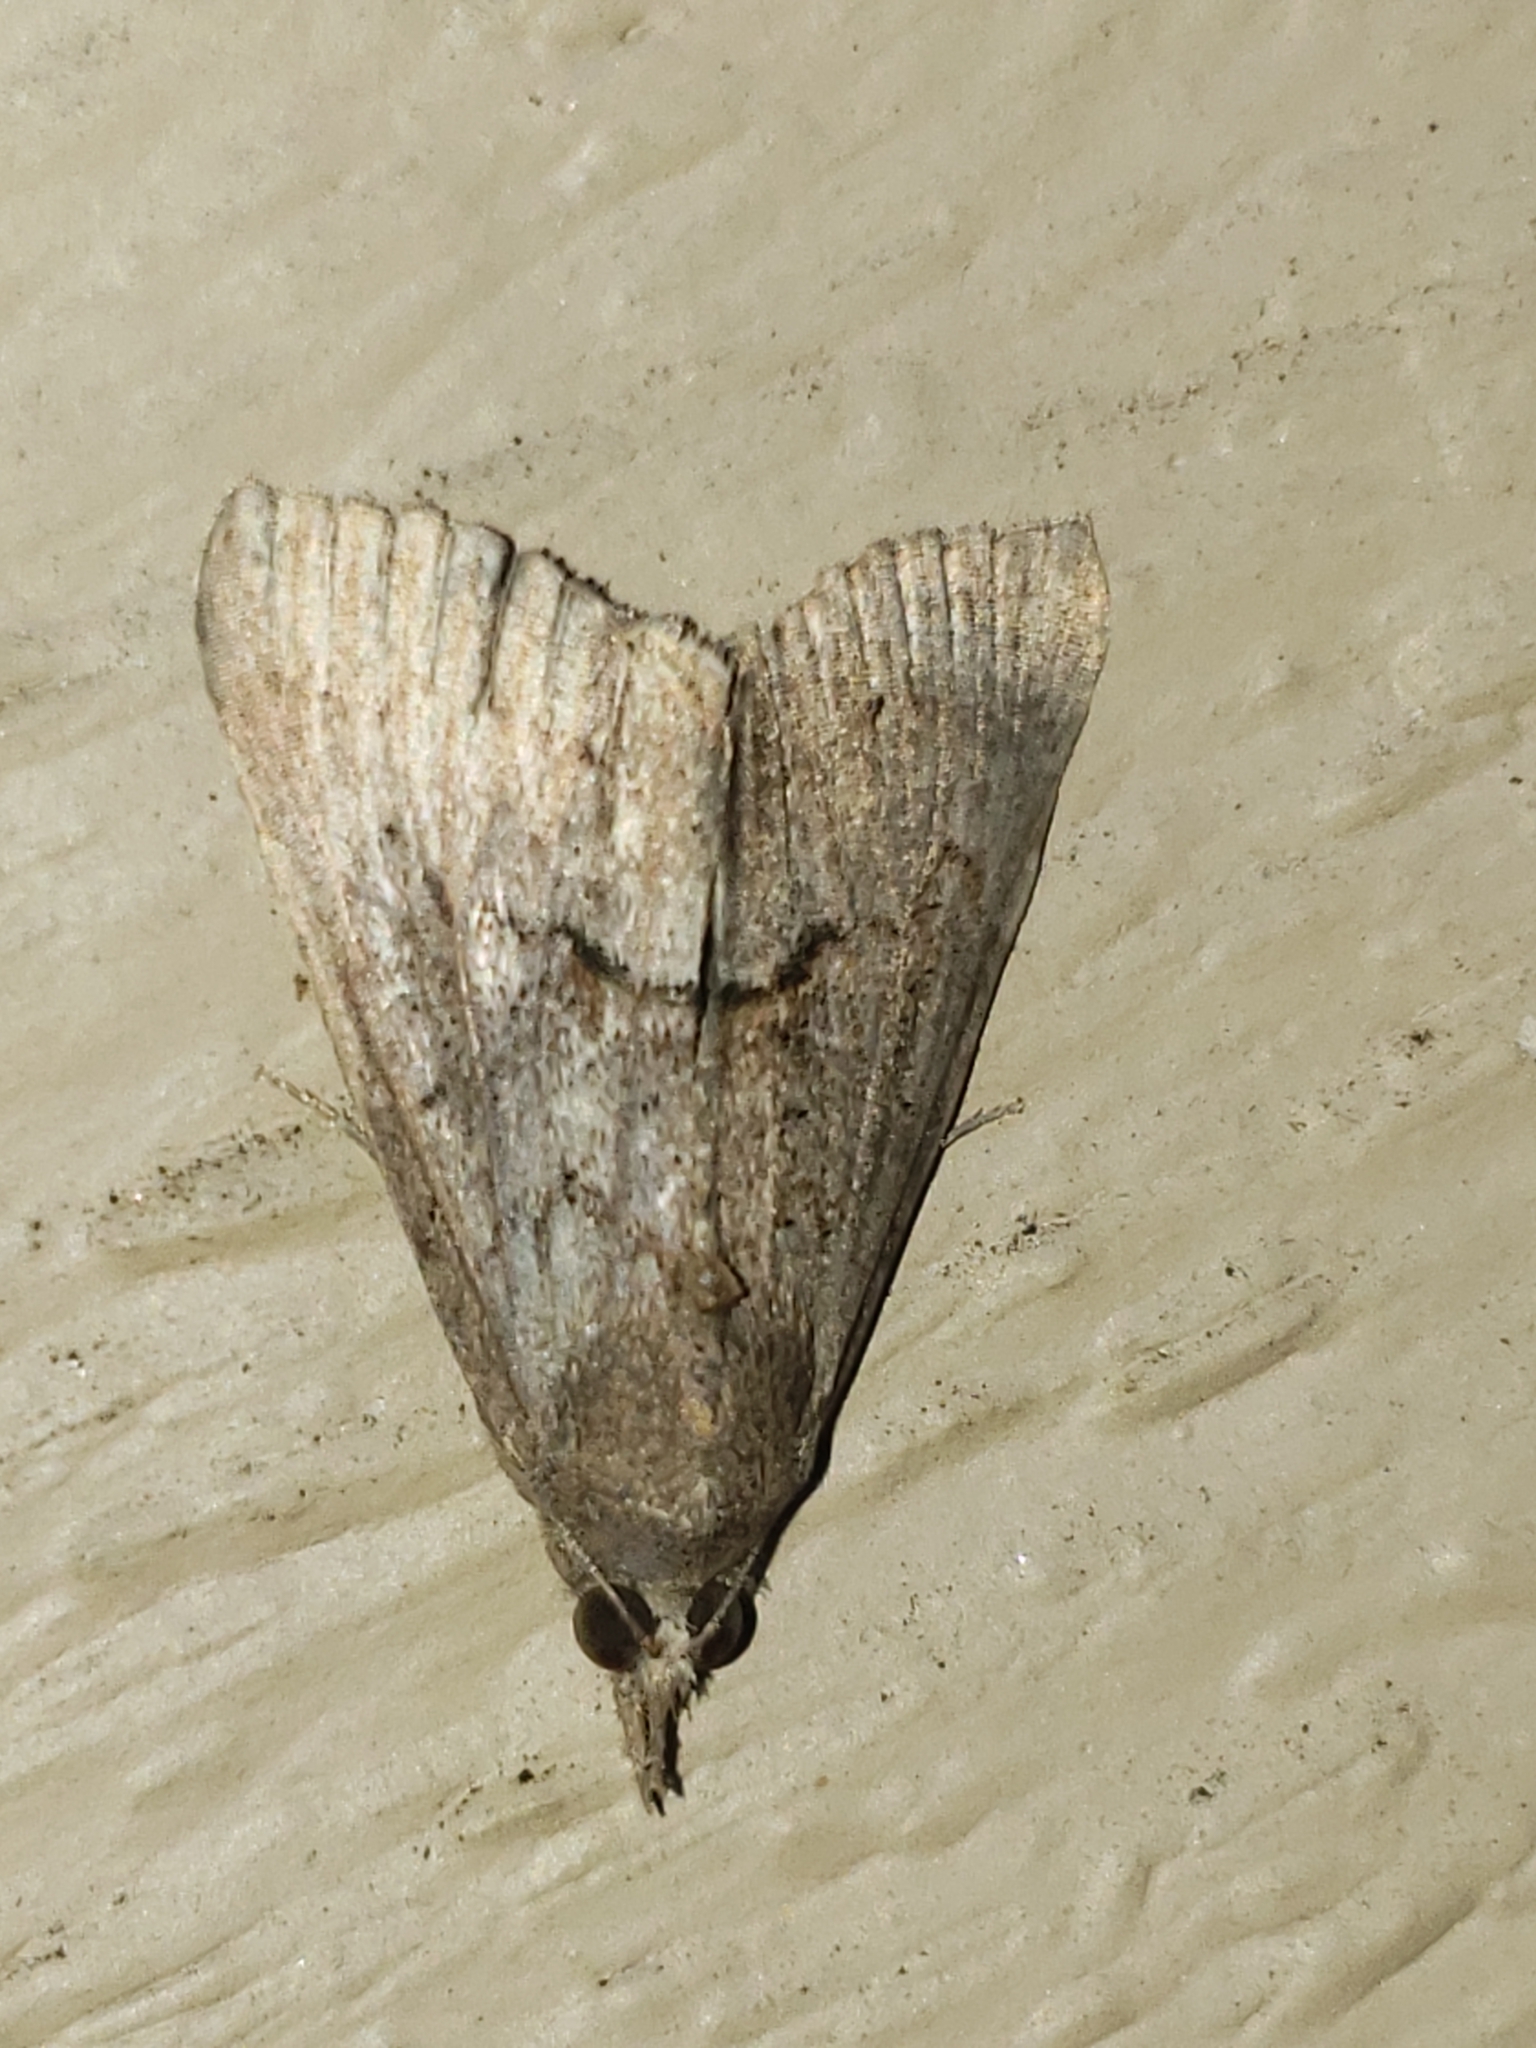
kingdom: Animalia
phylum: Arthropoda
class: Insecta
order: Lepidoptera
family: Erebidae
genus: Hypena
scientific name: Hypena scabra
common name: Green cloverworm
